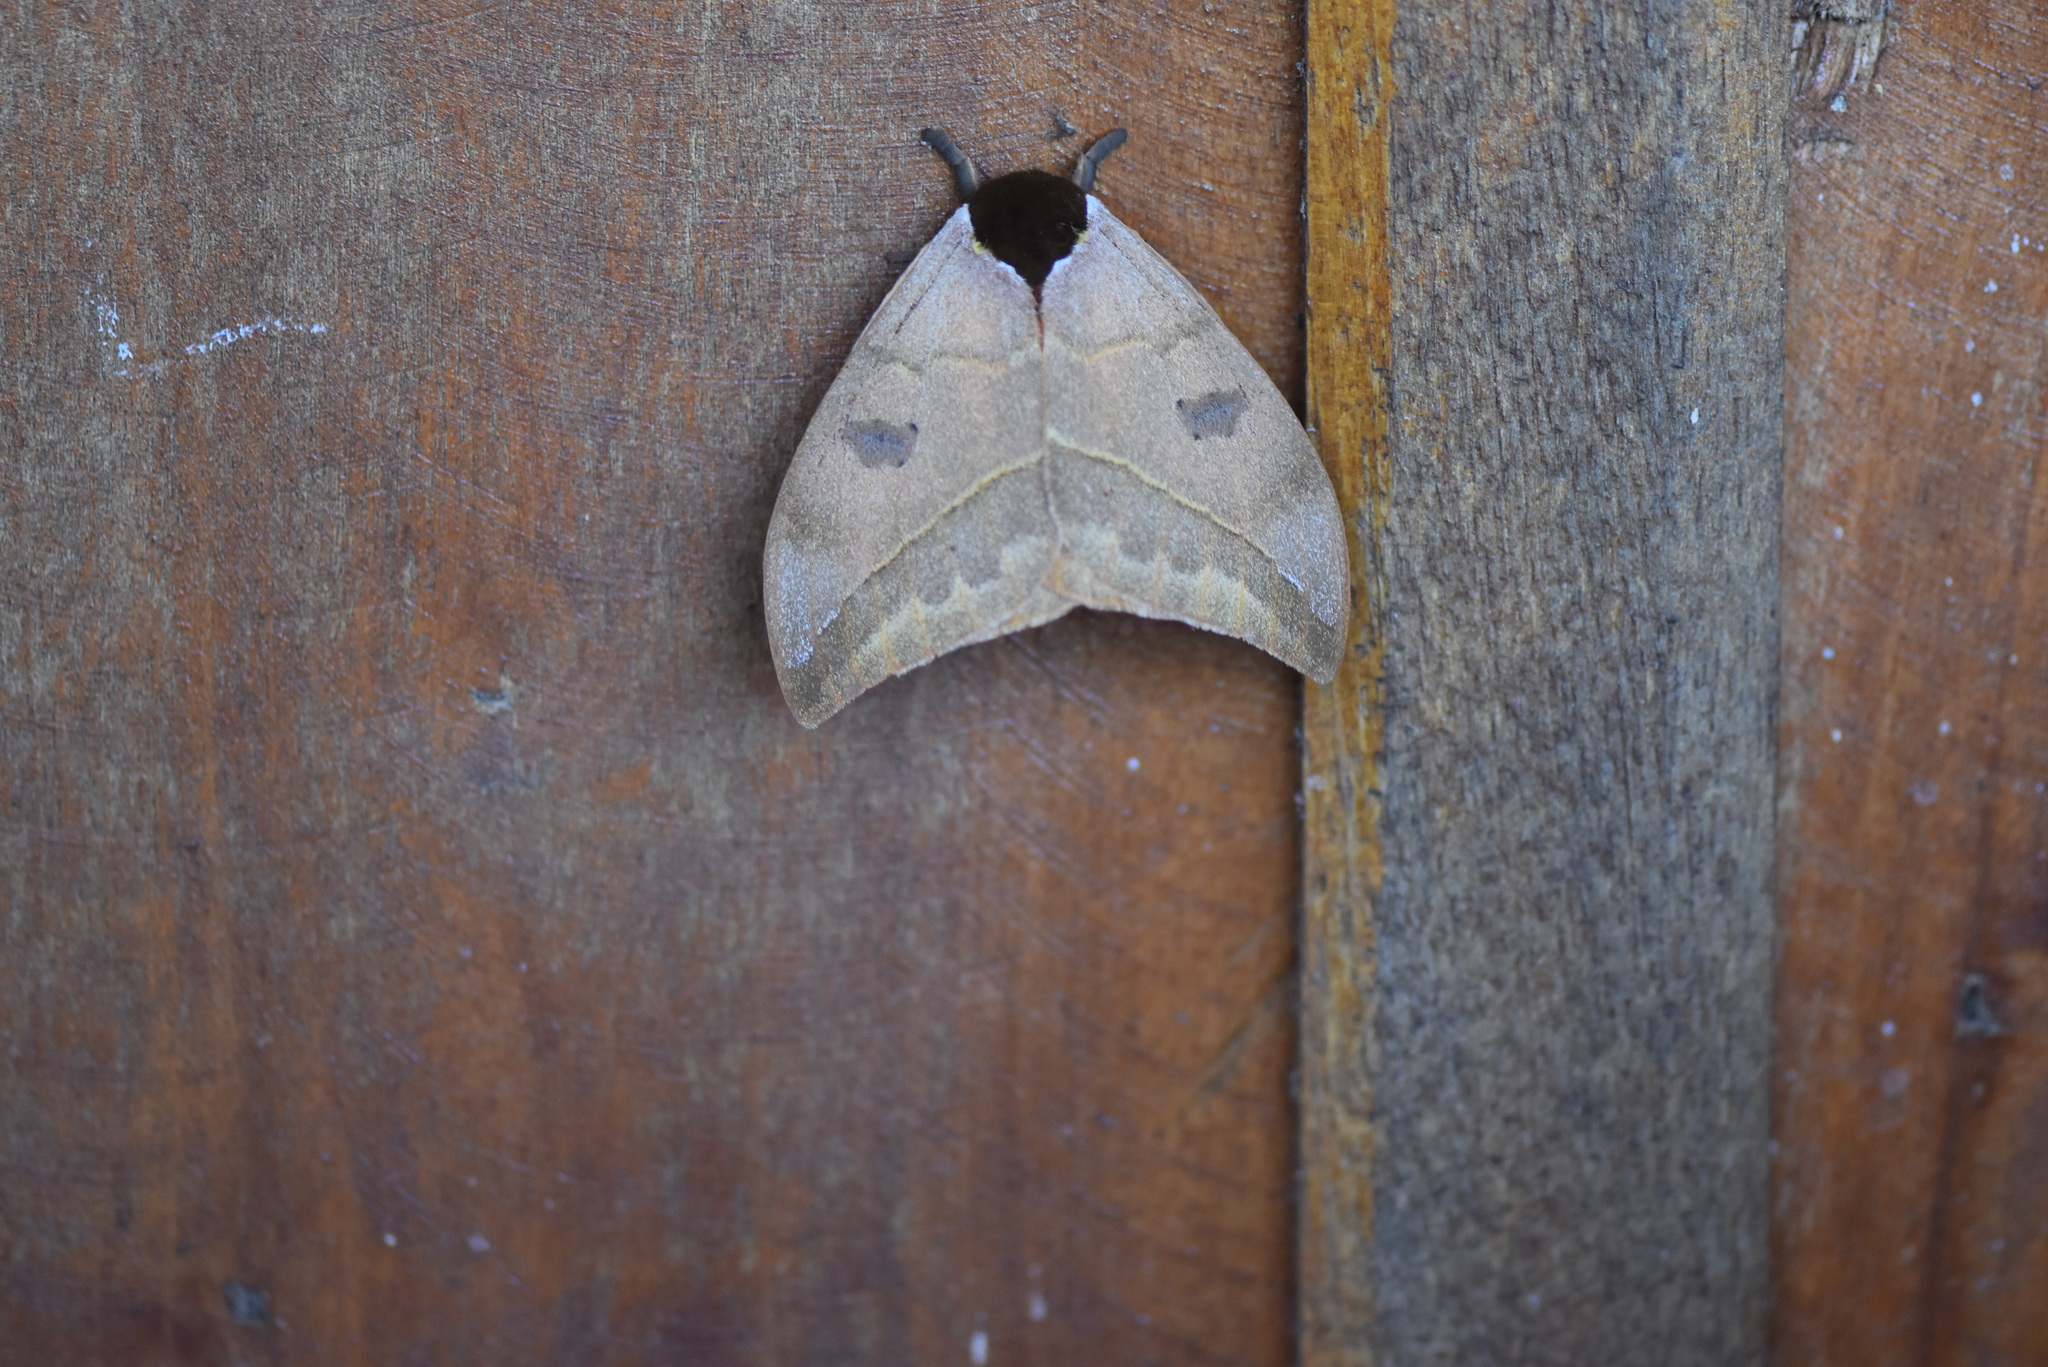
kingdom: Animalia
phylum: Arthropoda
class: Insecta
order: Lepidoptera
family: Saturniidae
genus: Automeris
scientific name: Automeris illustris
